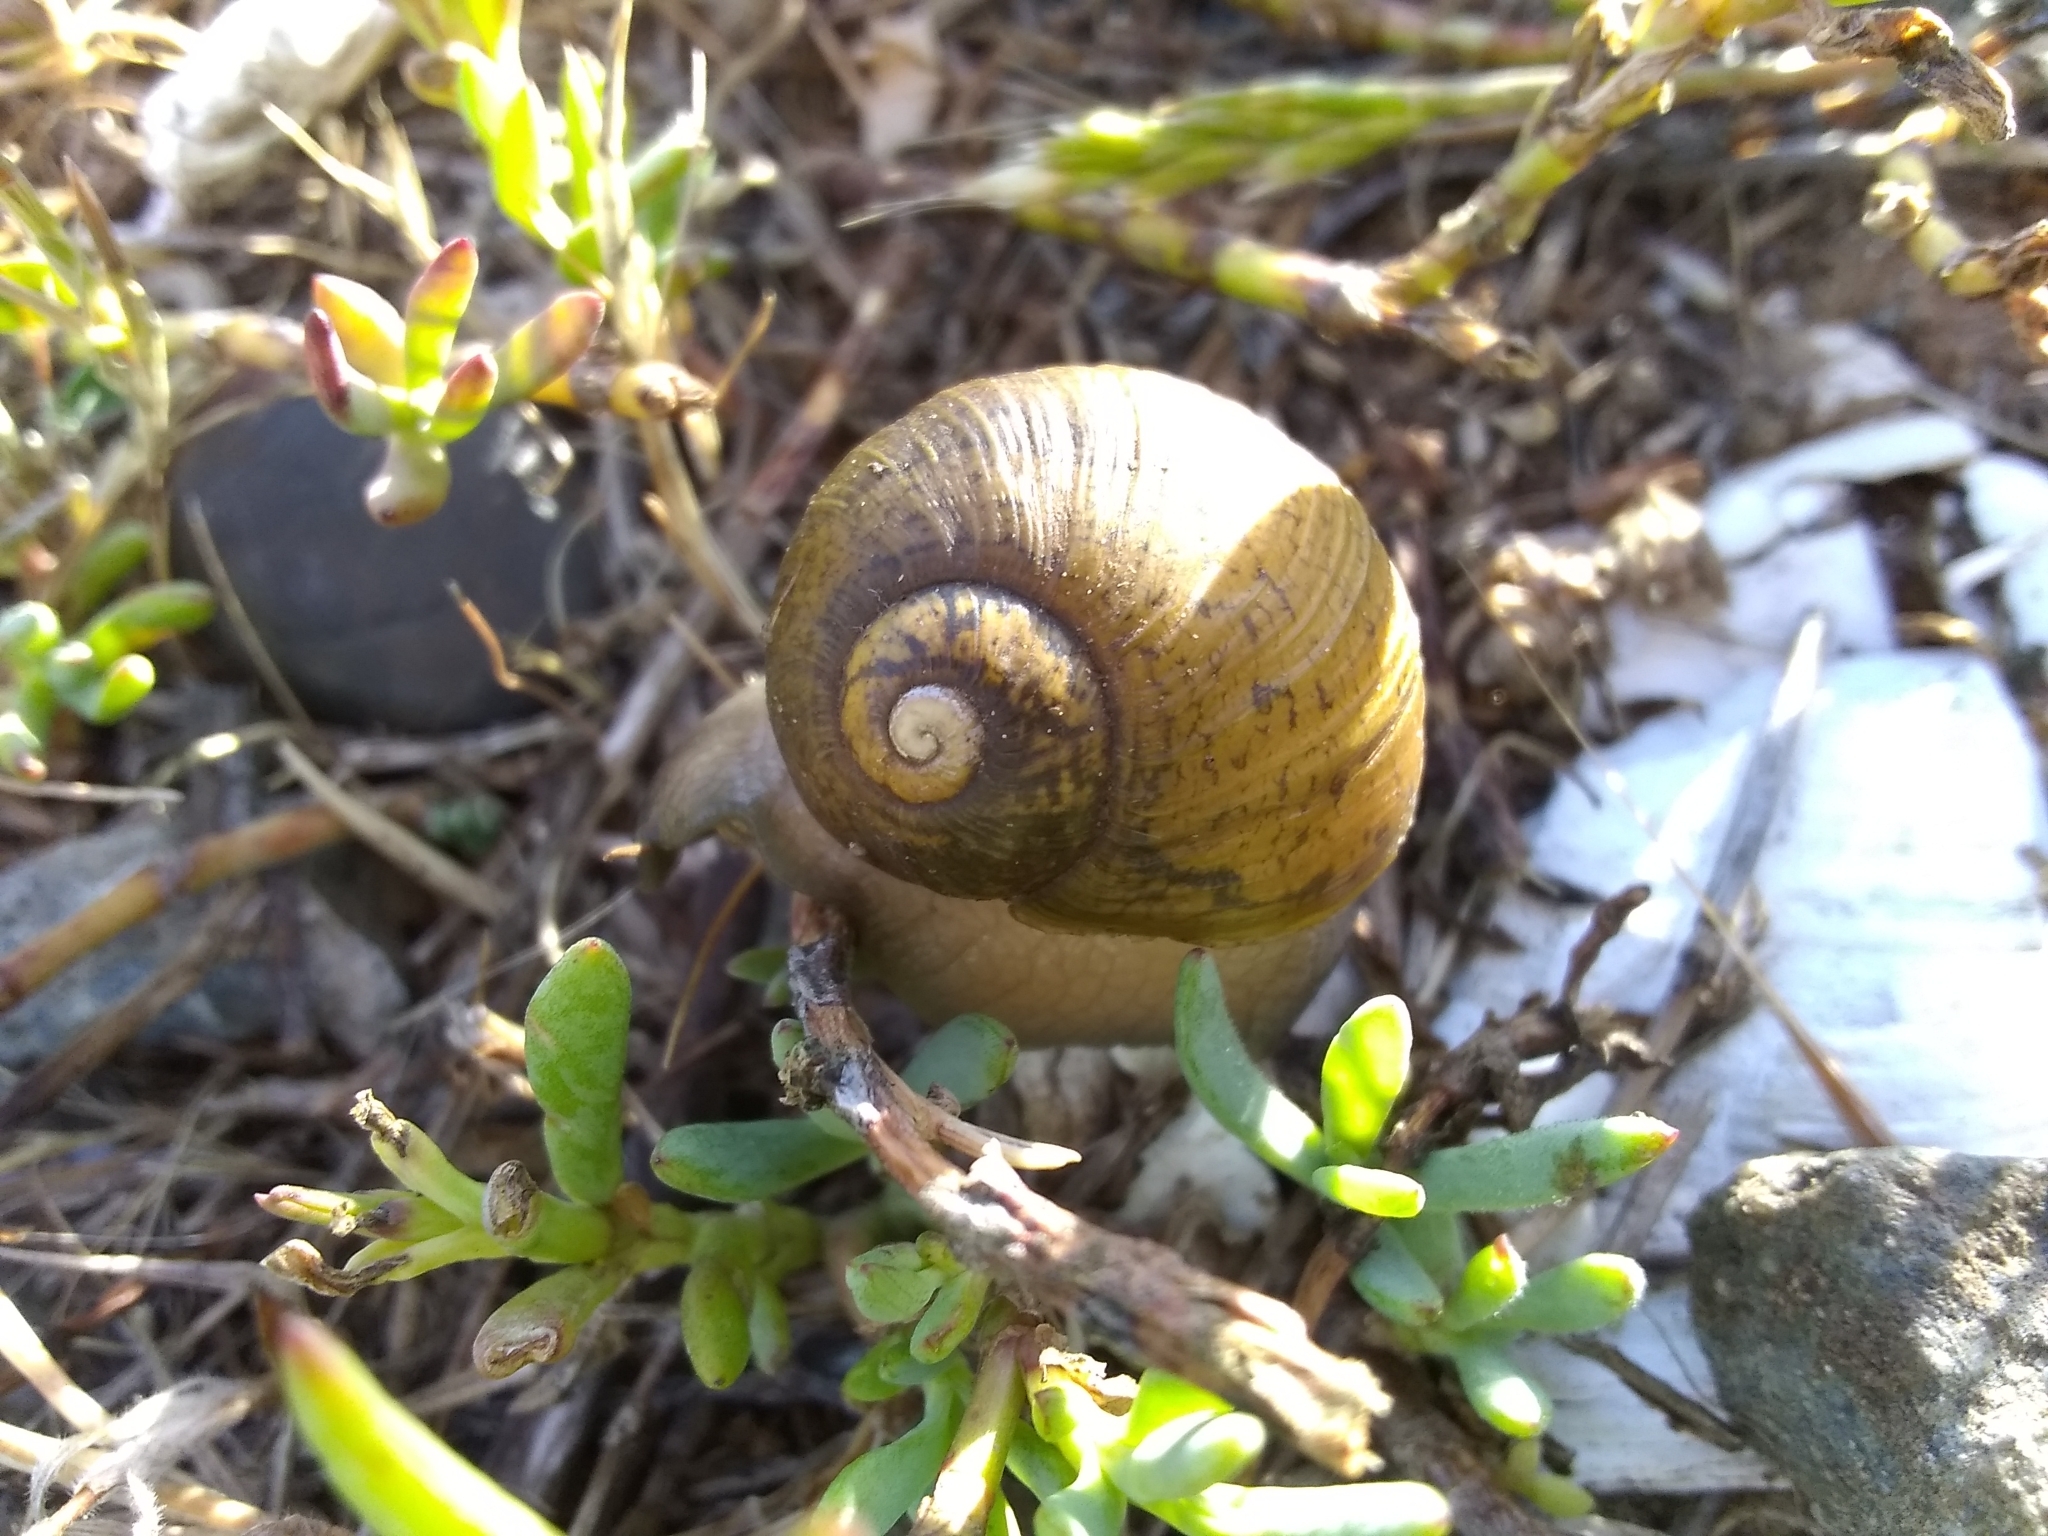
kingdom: Animalia
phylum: Mollusca
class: Gastropoda
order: Stylommatophora
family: Helicidae
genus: Cantareus
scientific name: Cantareus apertus
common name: Green gardensnail
